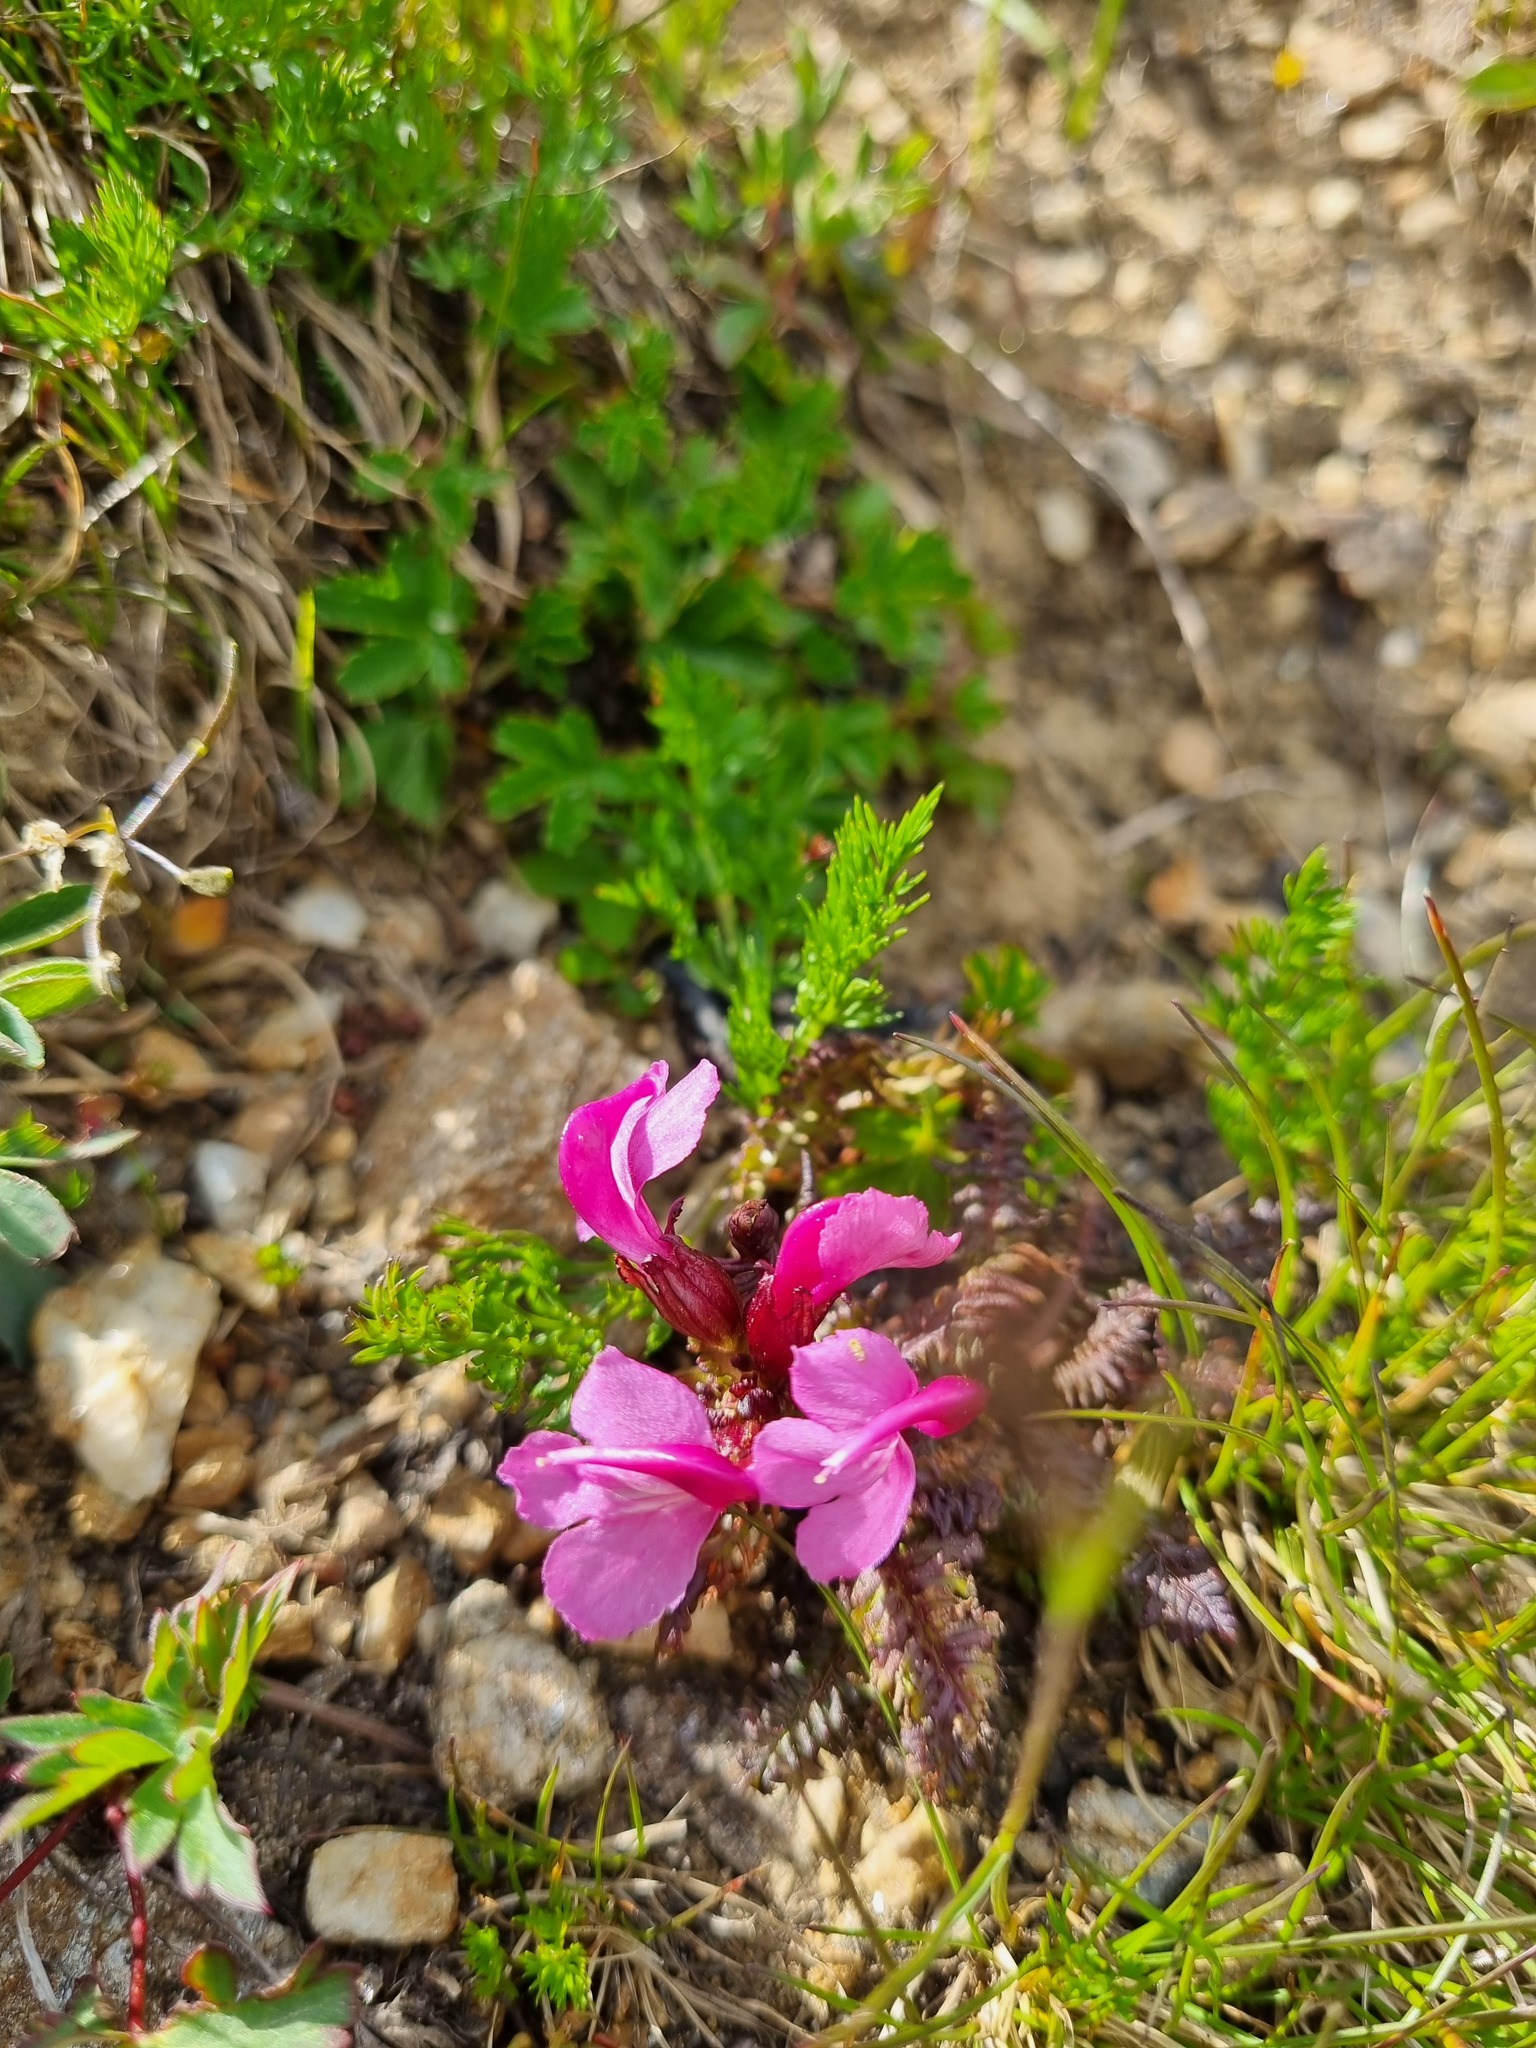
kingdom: Plantae
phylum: Tracheophyta
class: Magnoliopsida
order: Lamiales
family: Orobanchaceae
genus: Pedicularis
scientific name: Pedicularis nordmanniana
